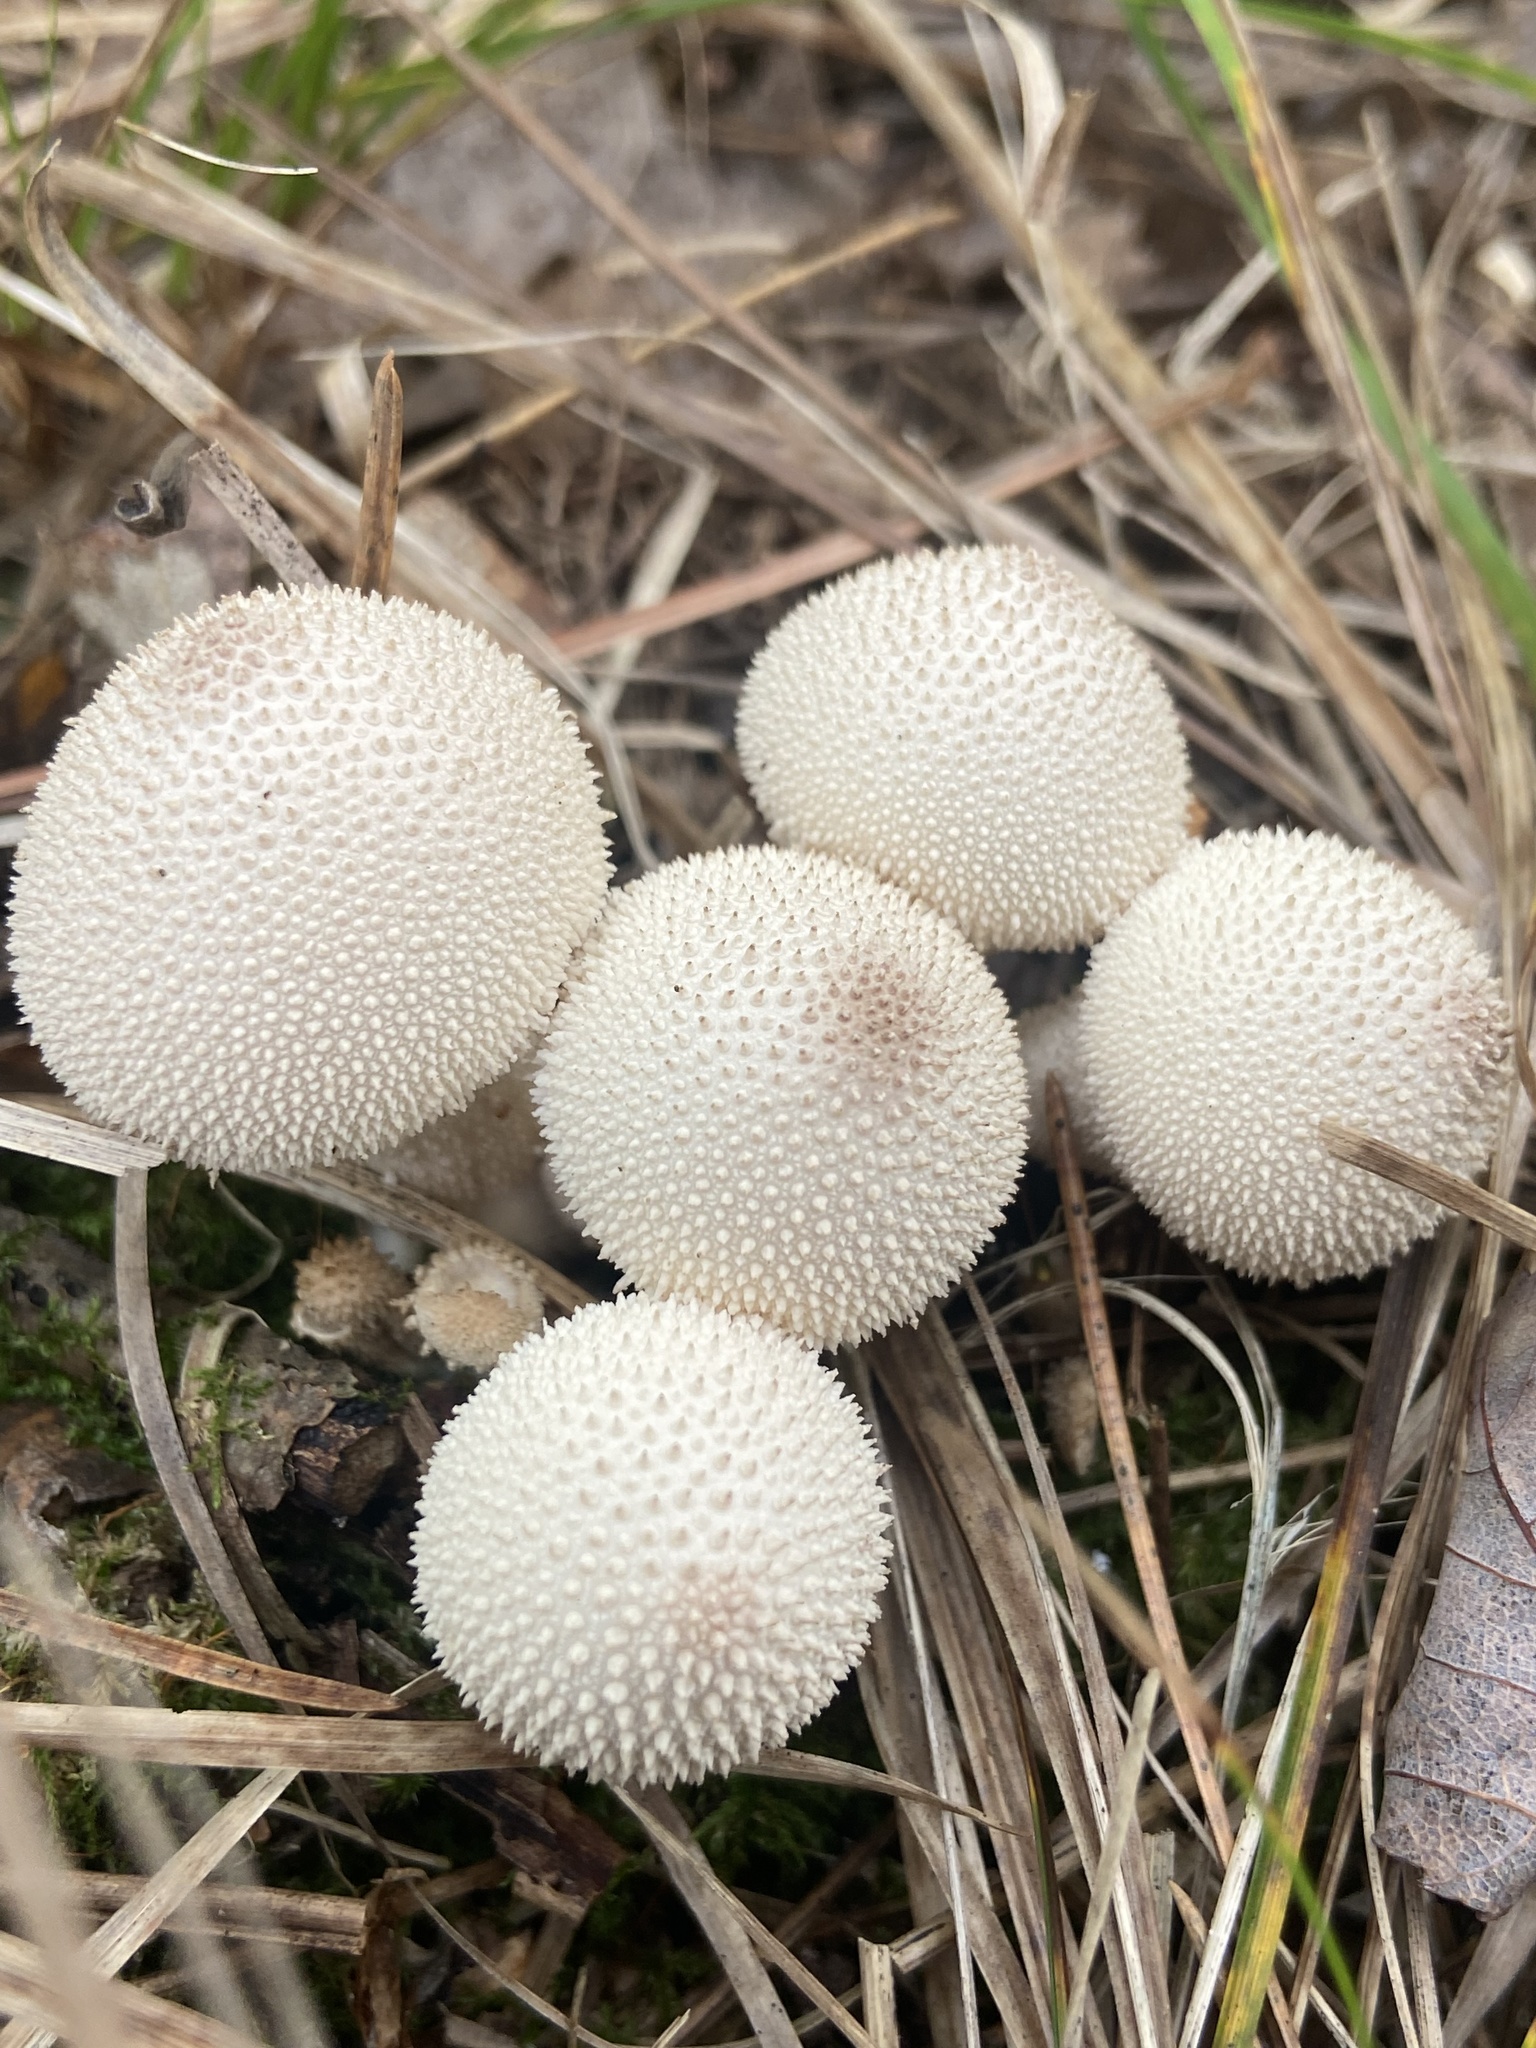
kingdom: Fungi
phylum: Basidiomycota
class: Agaricomycetes
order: Agaricales
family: Lycoperdaceae
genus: Lycoperdon
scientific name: Lycoperdon perlatum
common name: Common puffball
